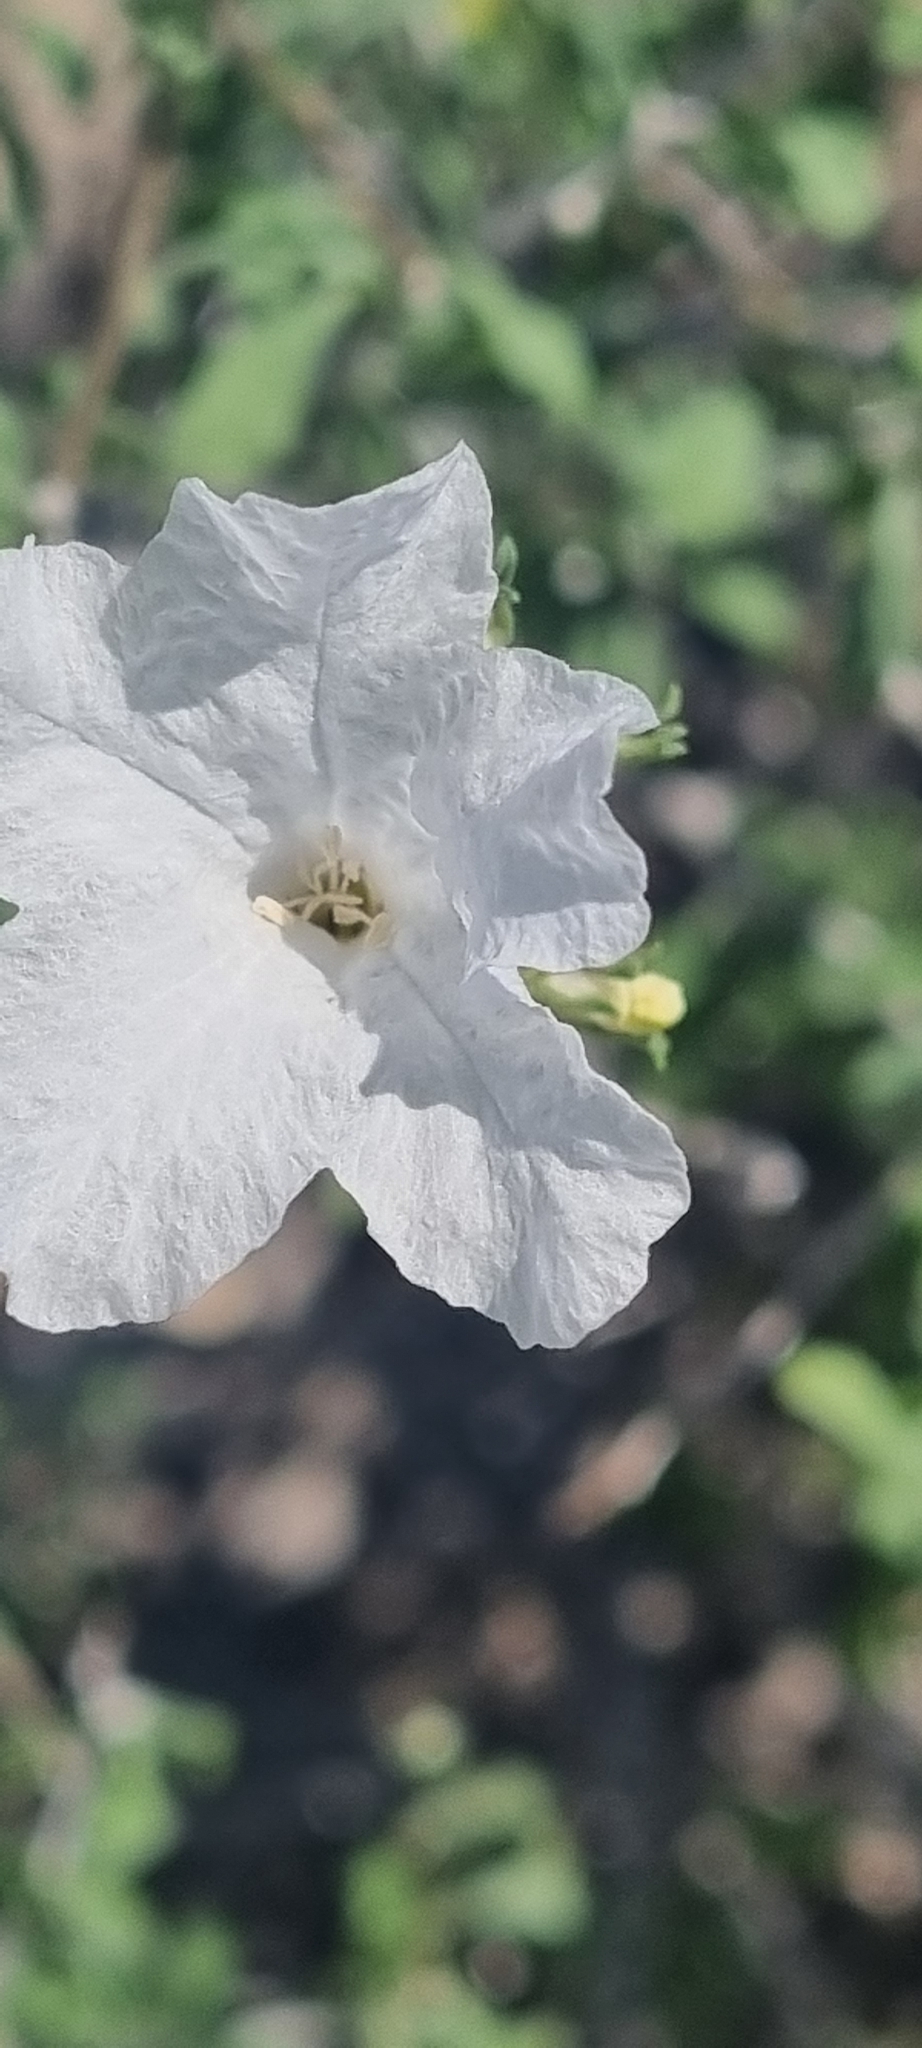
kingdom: Plantae
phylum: Tracheophyta
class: Magnoliopsida
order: Boraginales
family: Cordiaceae
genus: Cordia
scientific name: Cordia parvifolia
